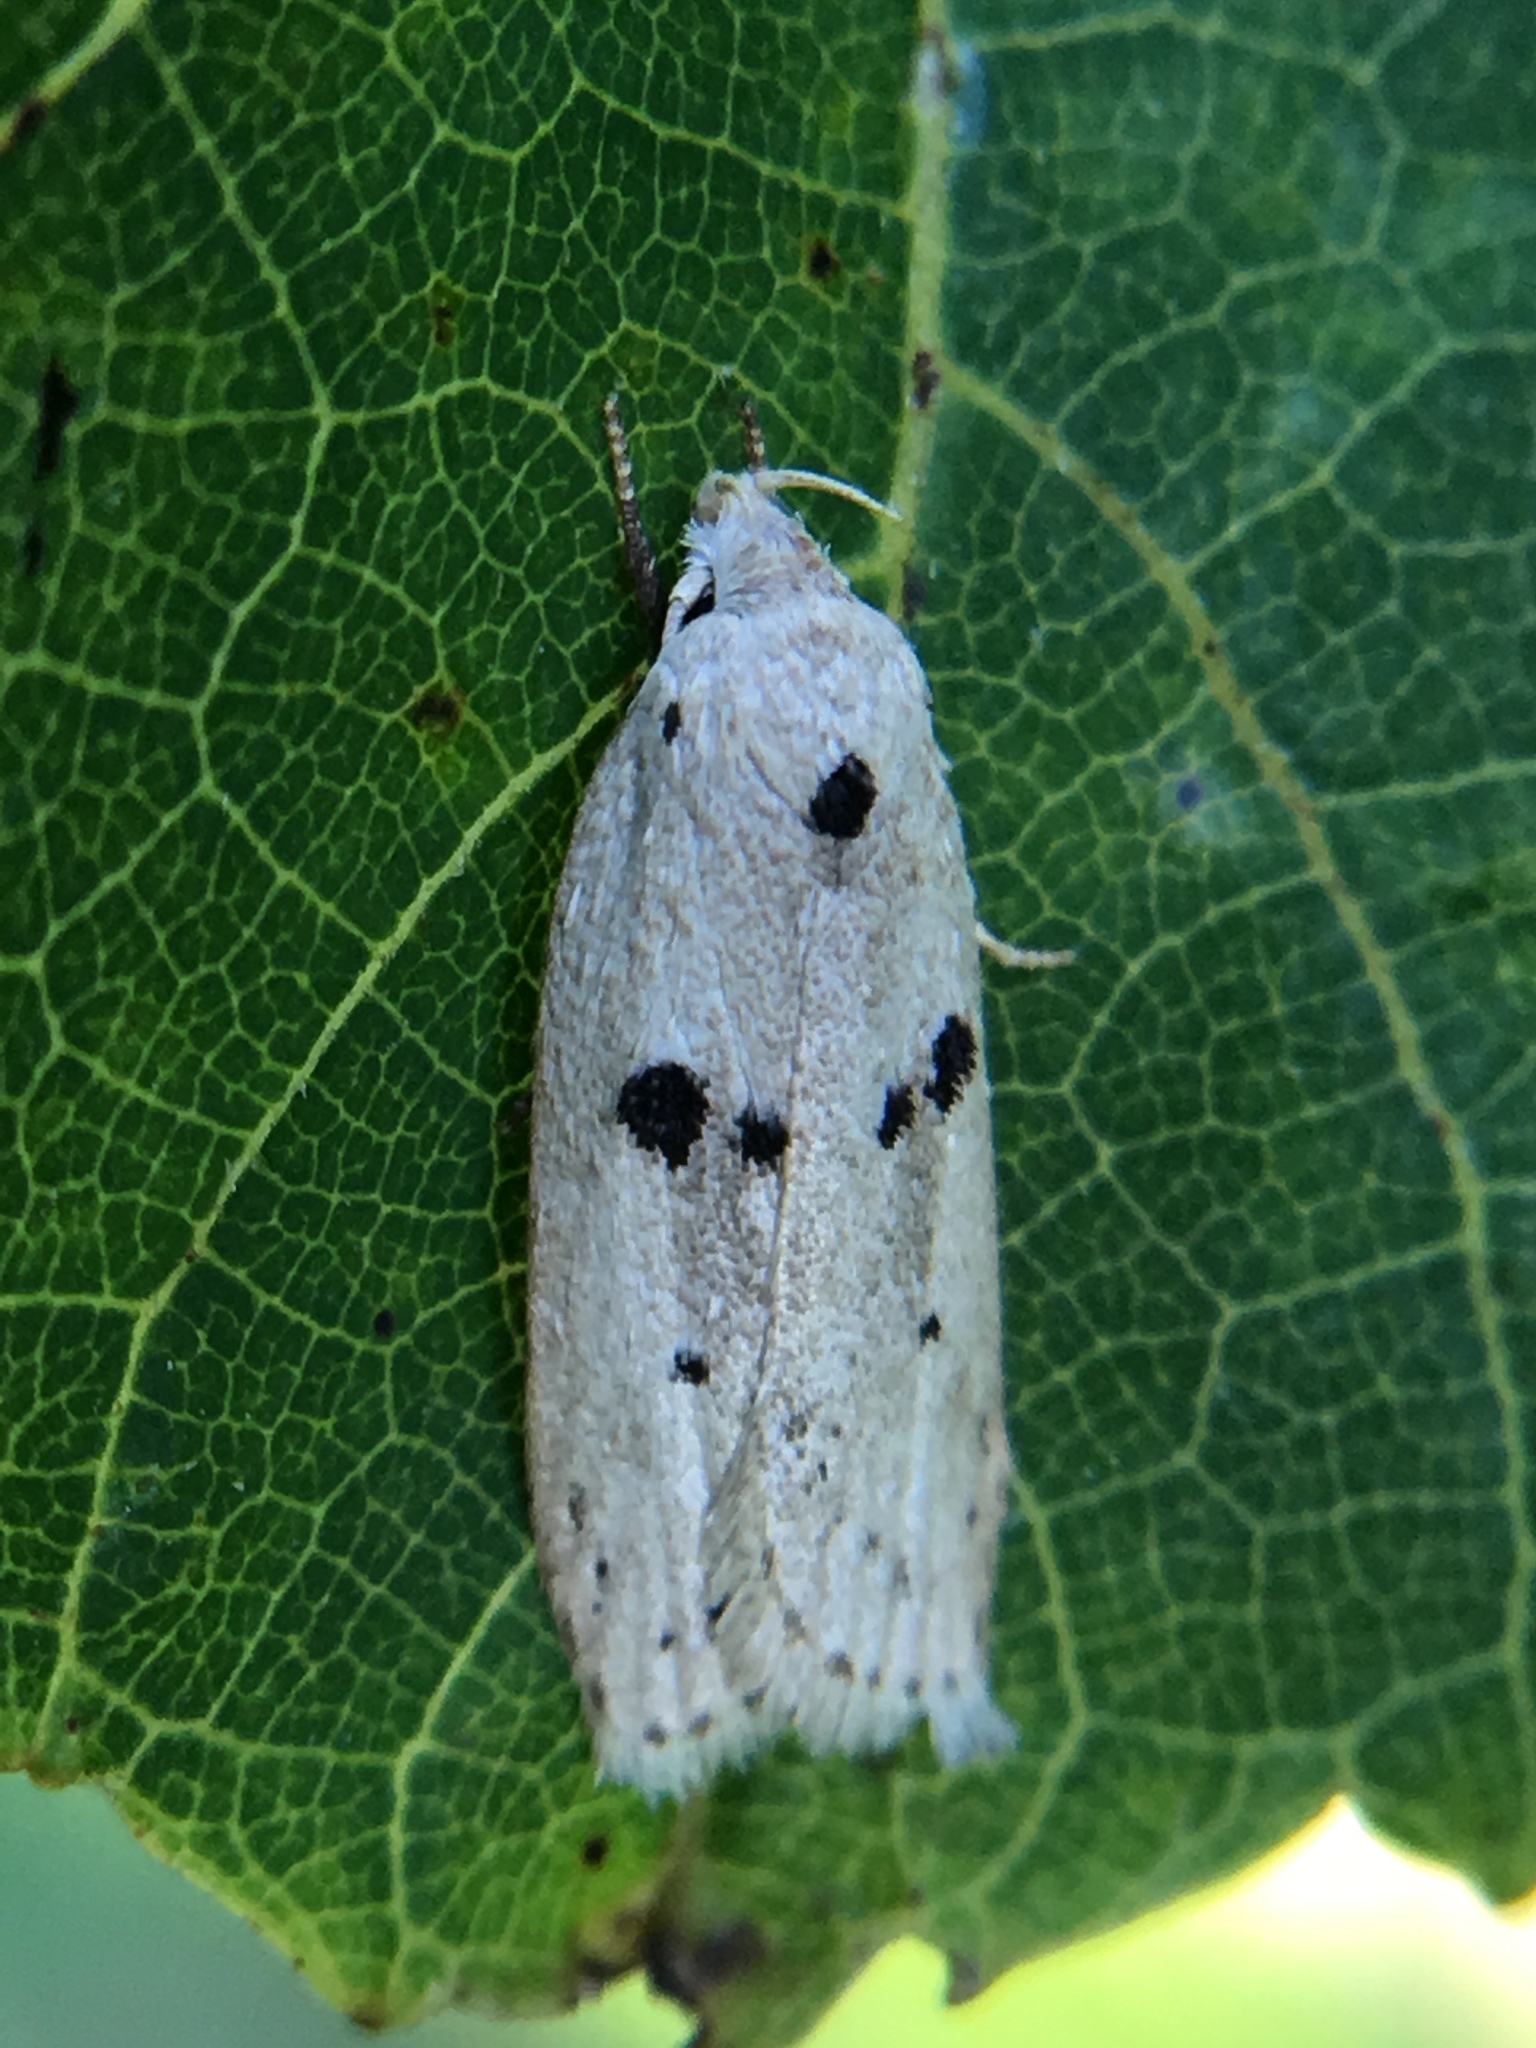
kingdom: Animalia
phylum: Arthropoda
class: Insecta
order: Lepidoptera
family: Peleopodidae
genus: Scythropiodes
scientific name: Scythropiodes issikii
